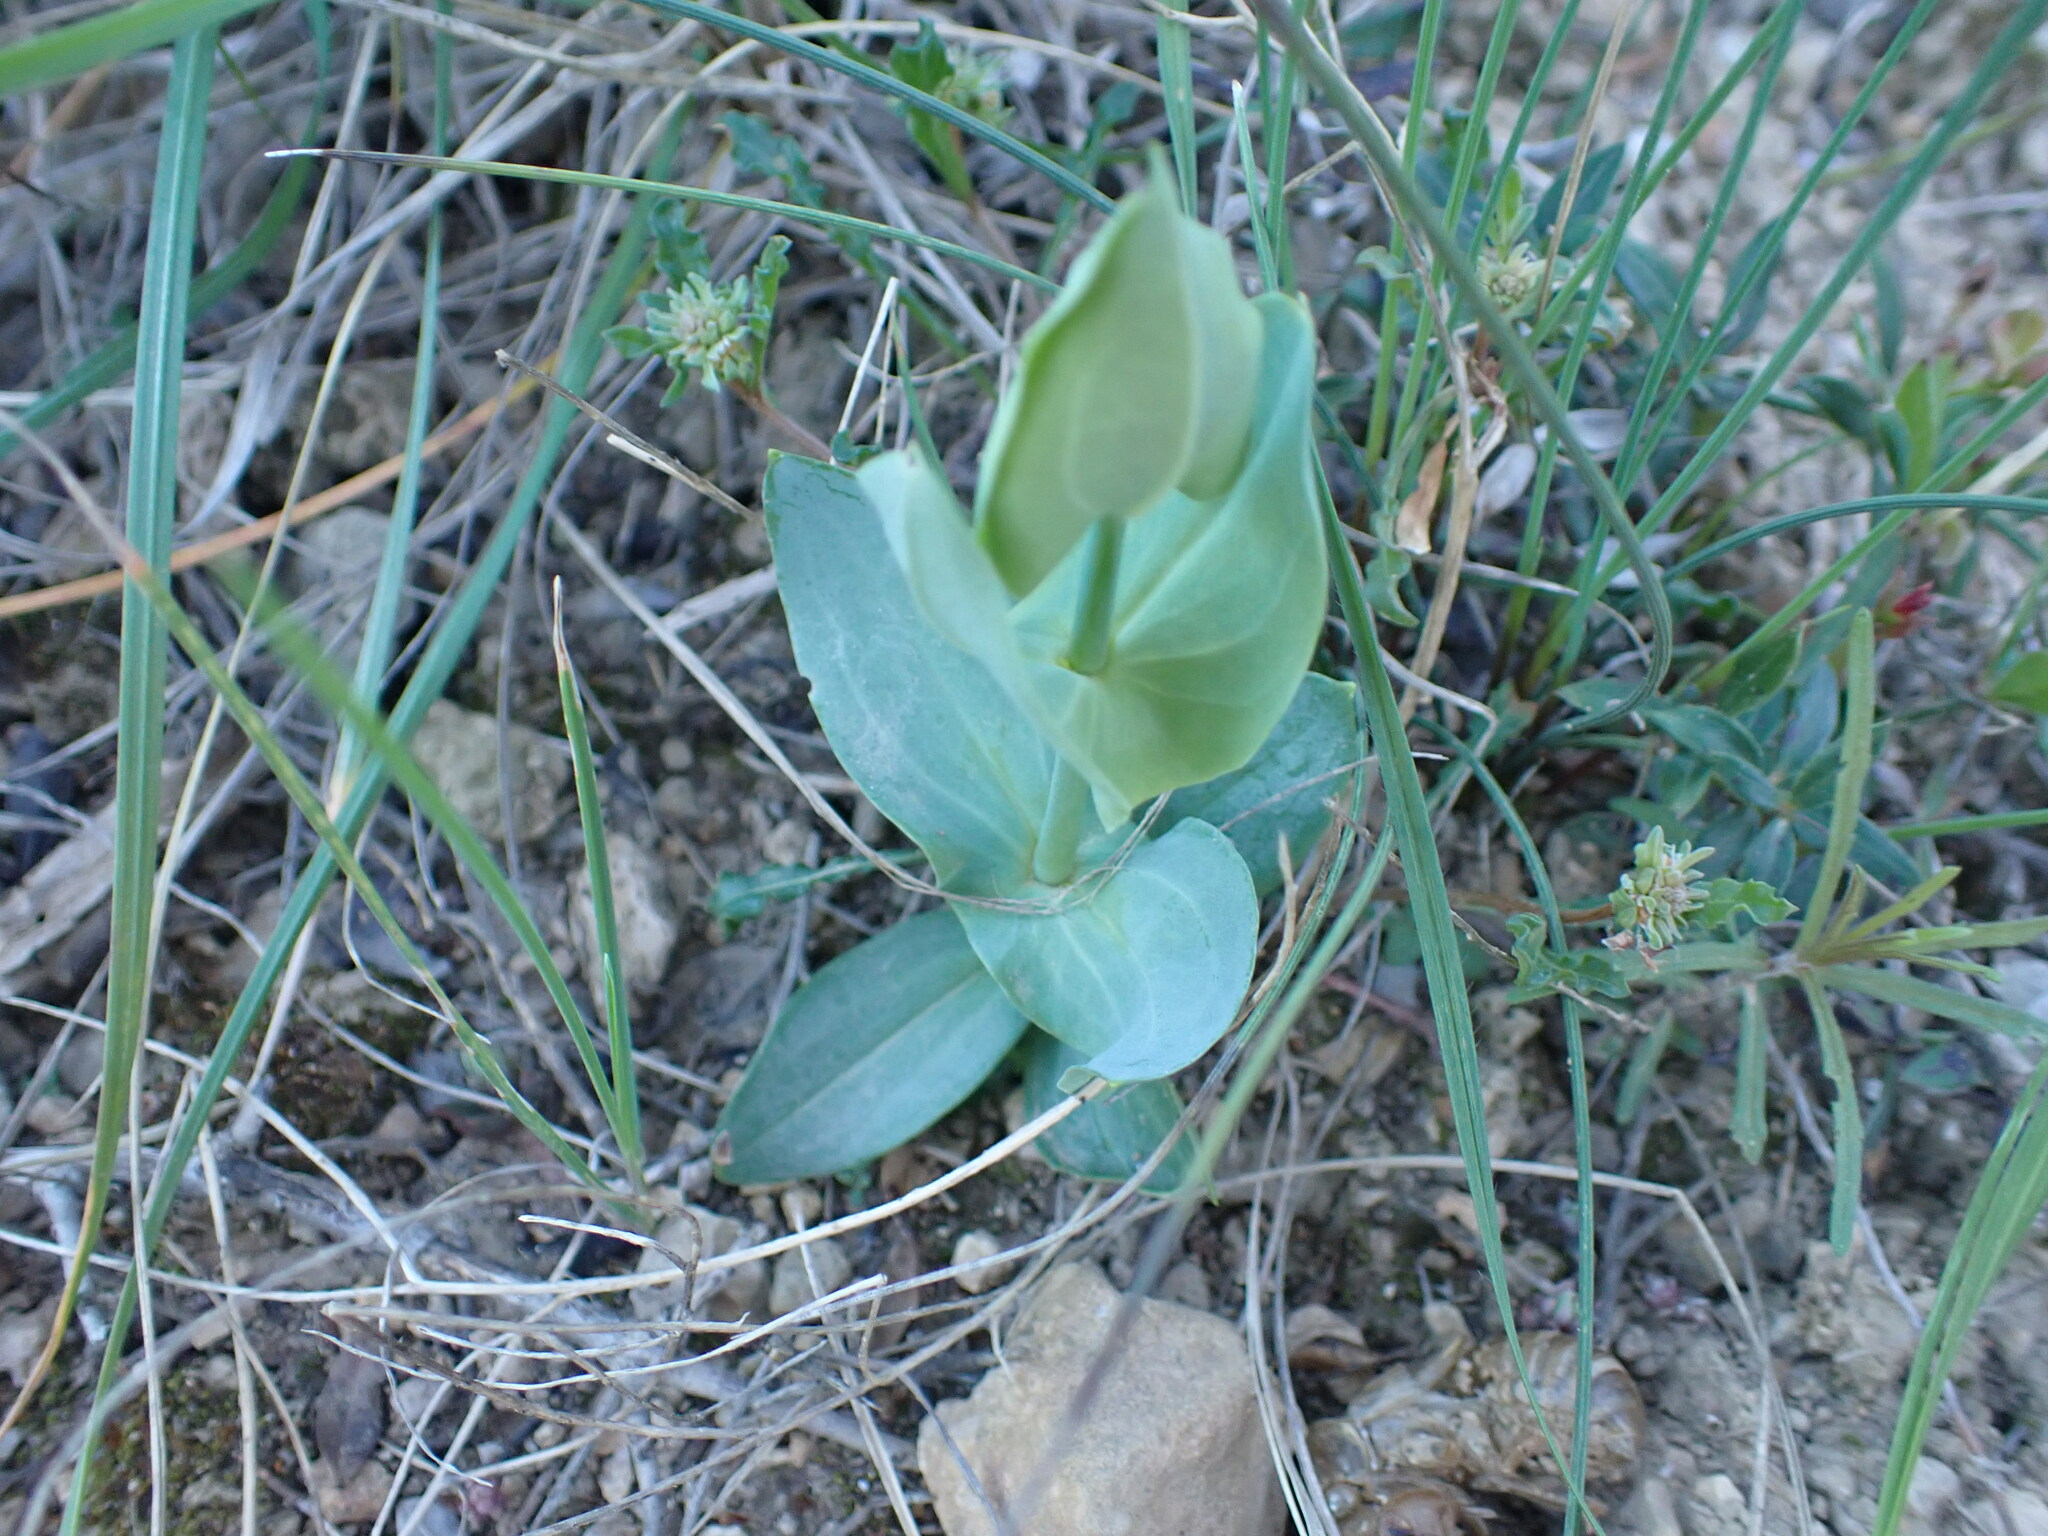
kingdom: Plantae
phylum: Tracheophyta
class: Magnoliopsida
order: Gentianales
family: Gentianaceae
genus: Blackstonia
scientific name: Blackstonia perfoliata
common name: Yellow-wort
